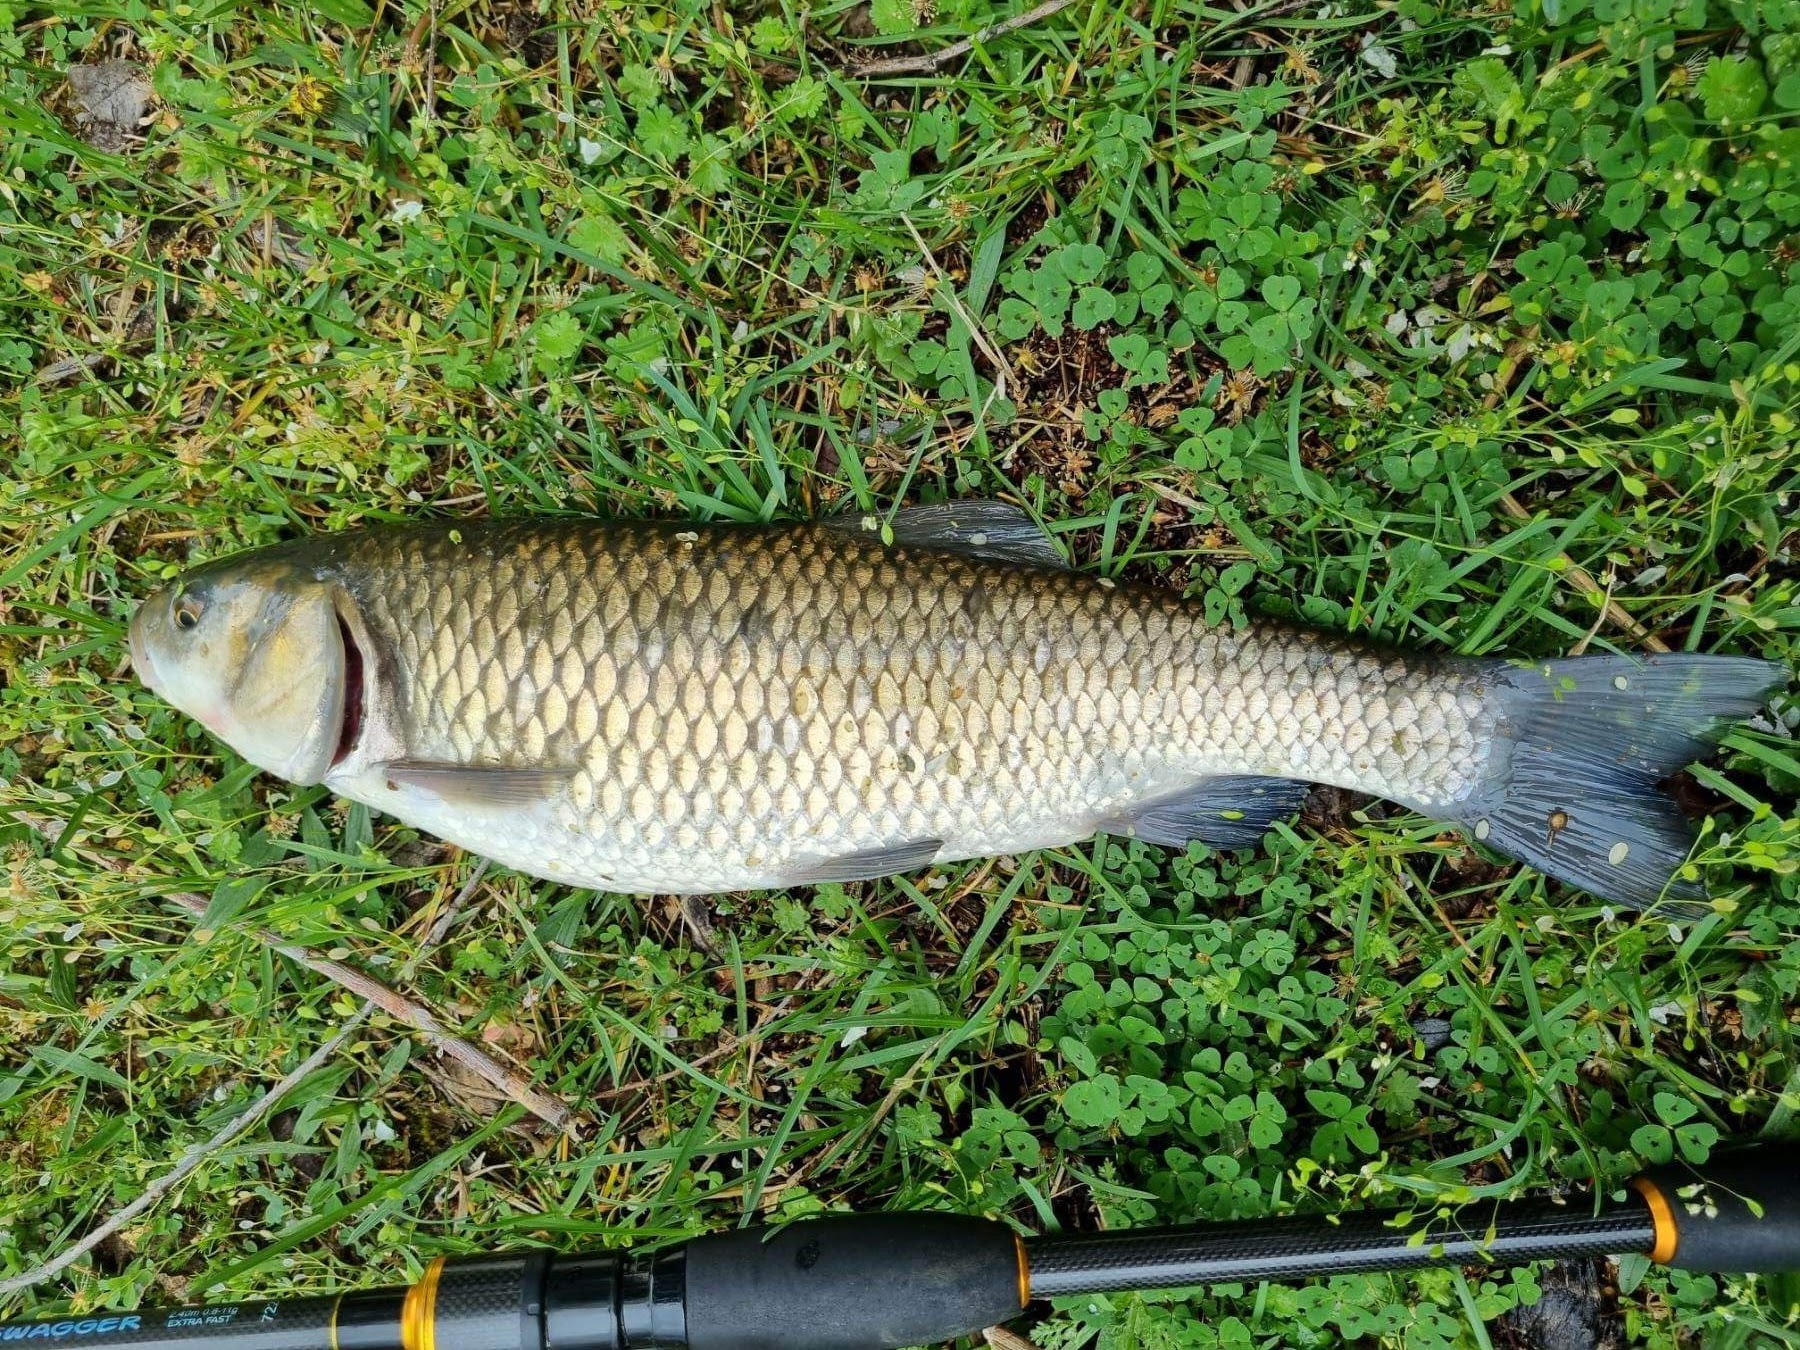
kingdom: Animalia
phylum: Chordata
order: Cypriniformes
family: Cyprinidae
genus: Squalius
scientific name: Squalius orpheus
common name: Maritza chub
